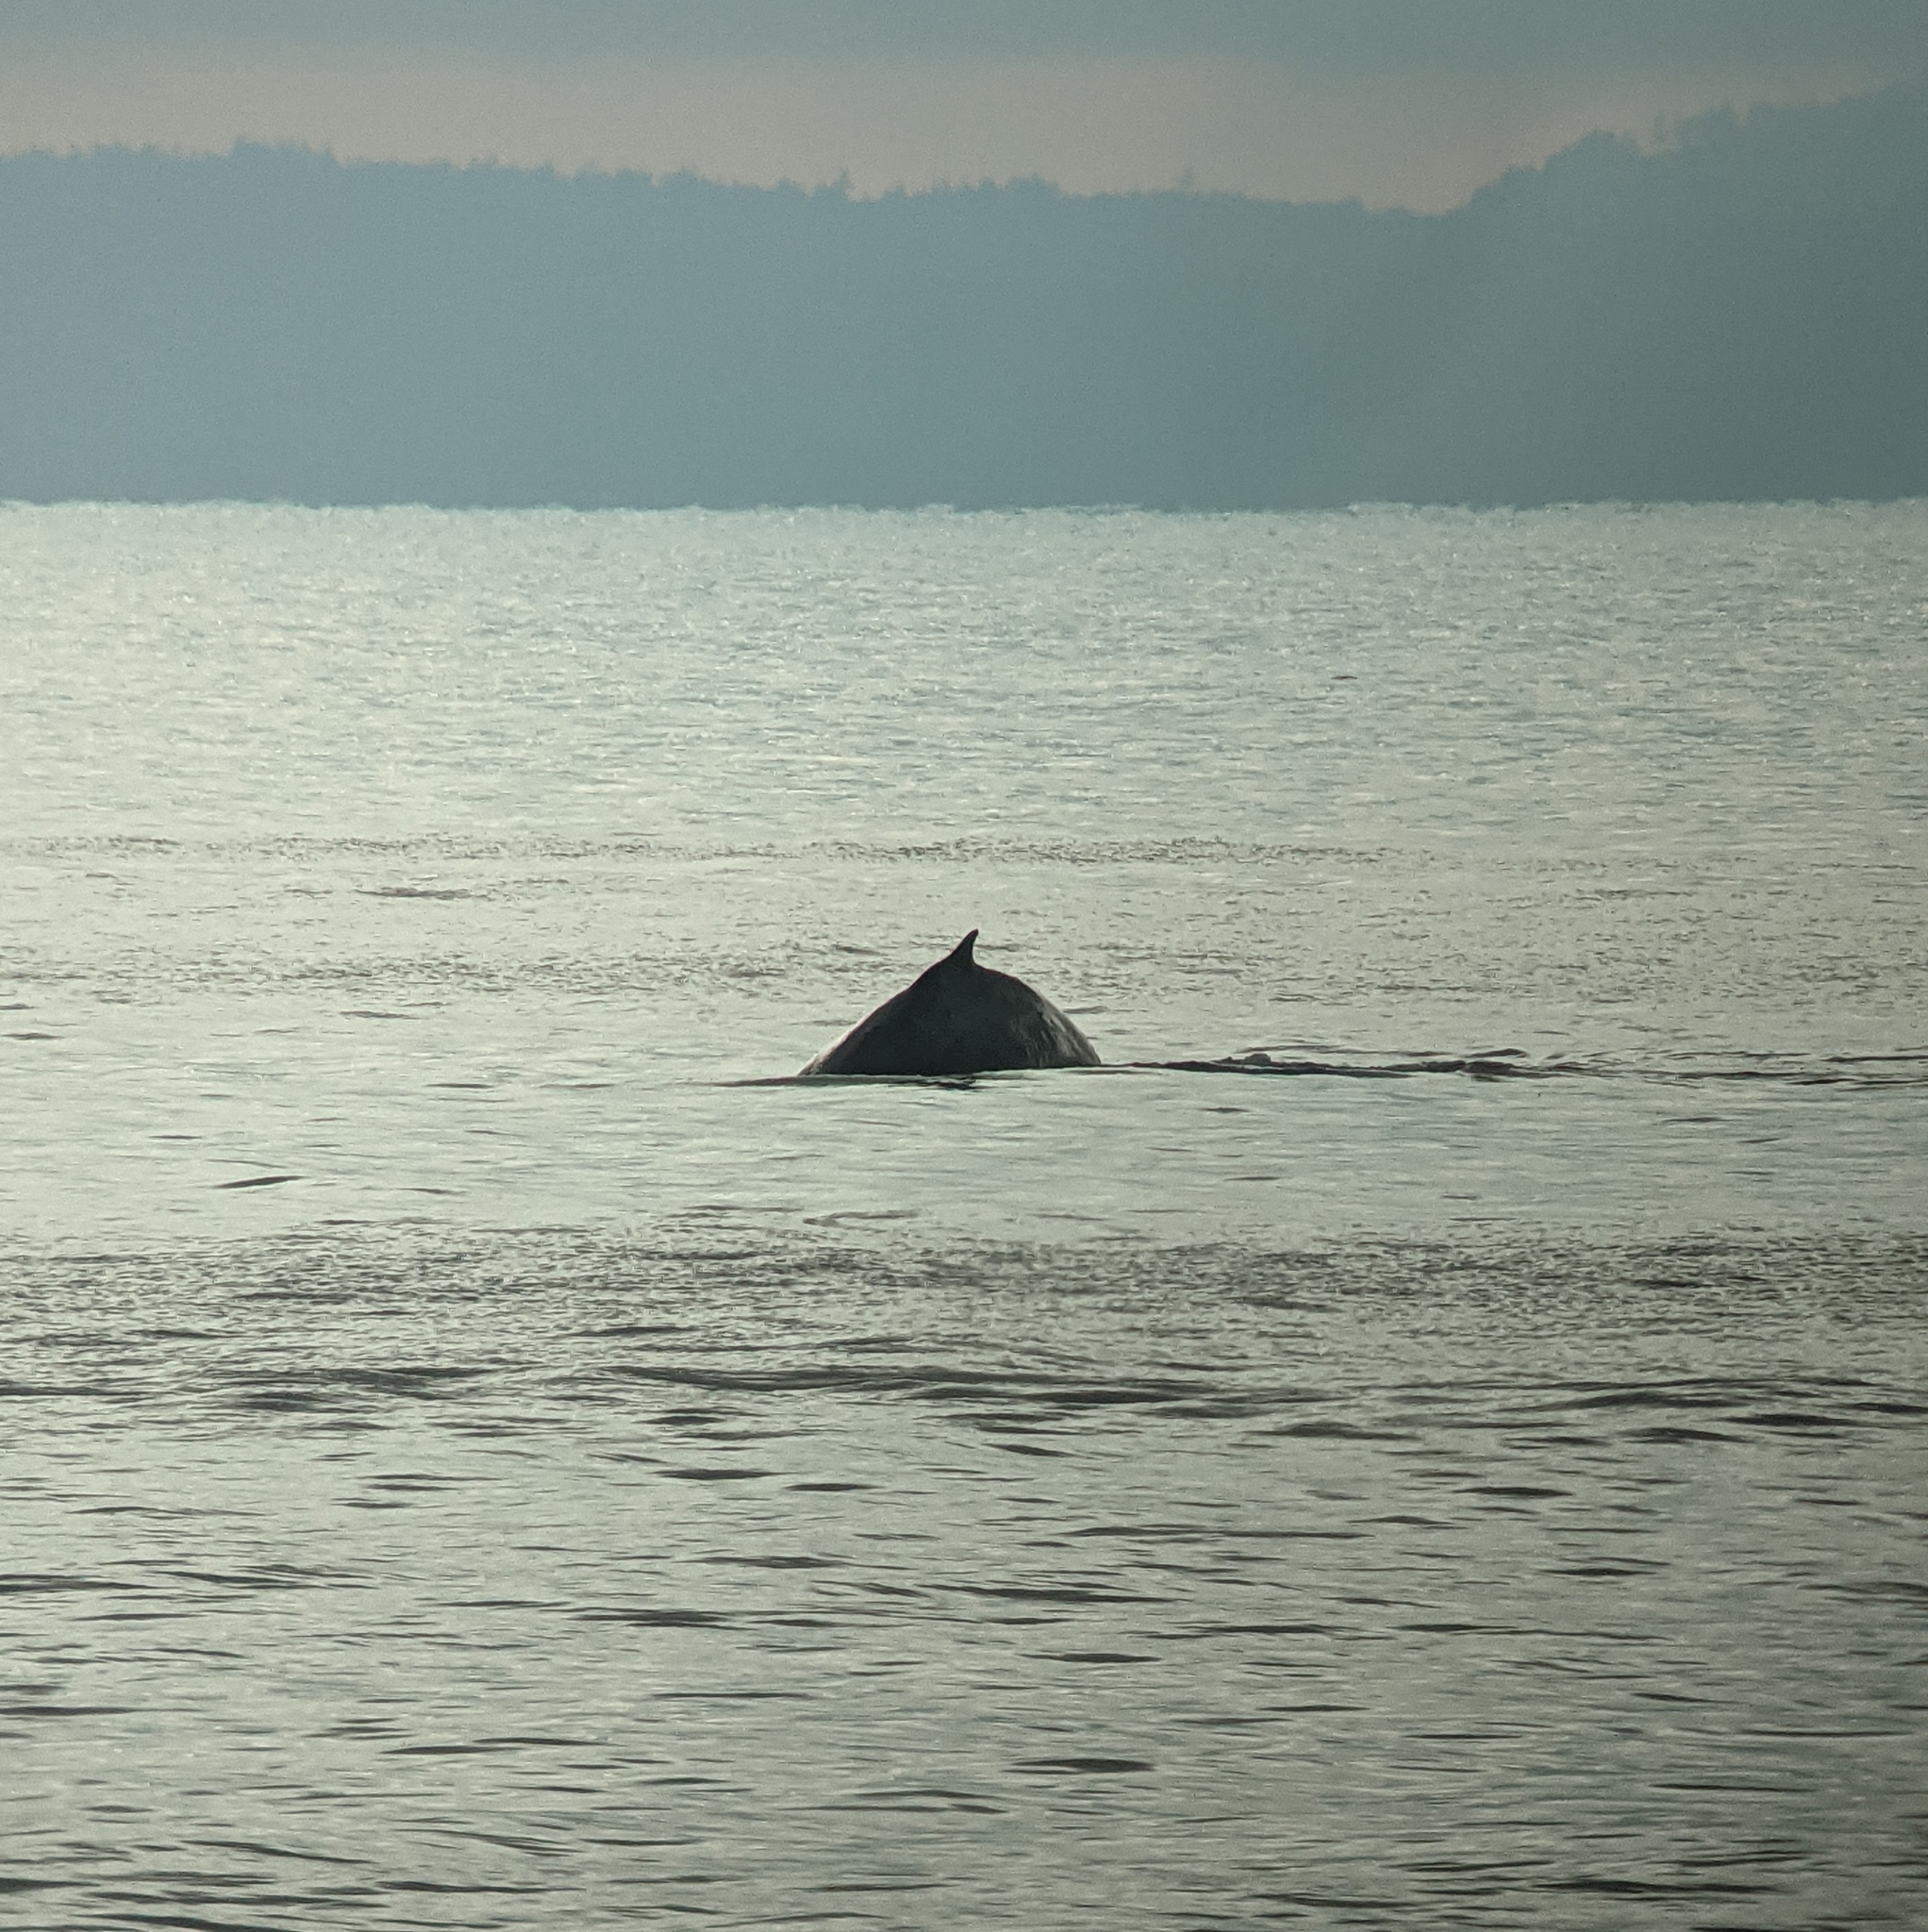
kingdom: Animalia
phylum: Chordata
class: Mammalia
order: Cetacea
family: Balaenopteridae
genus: Megaptera
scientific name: Megaptera novaeangliae
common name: Humpback whale
